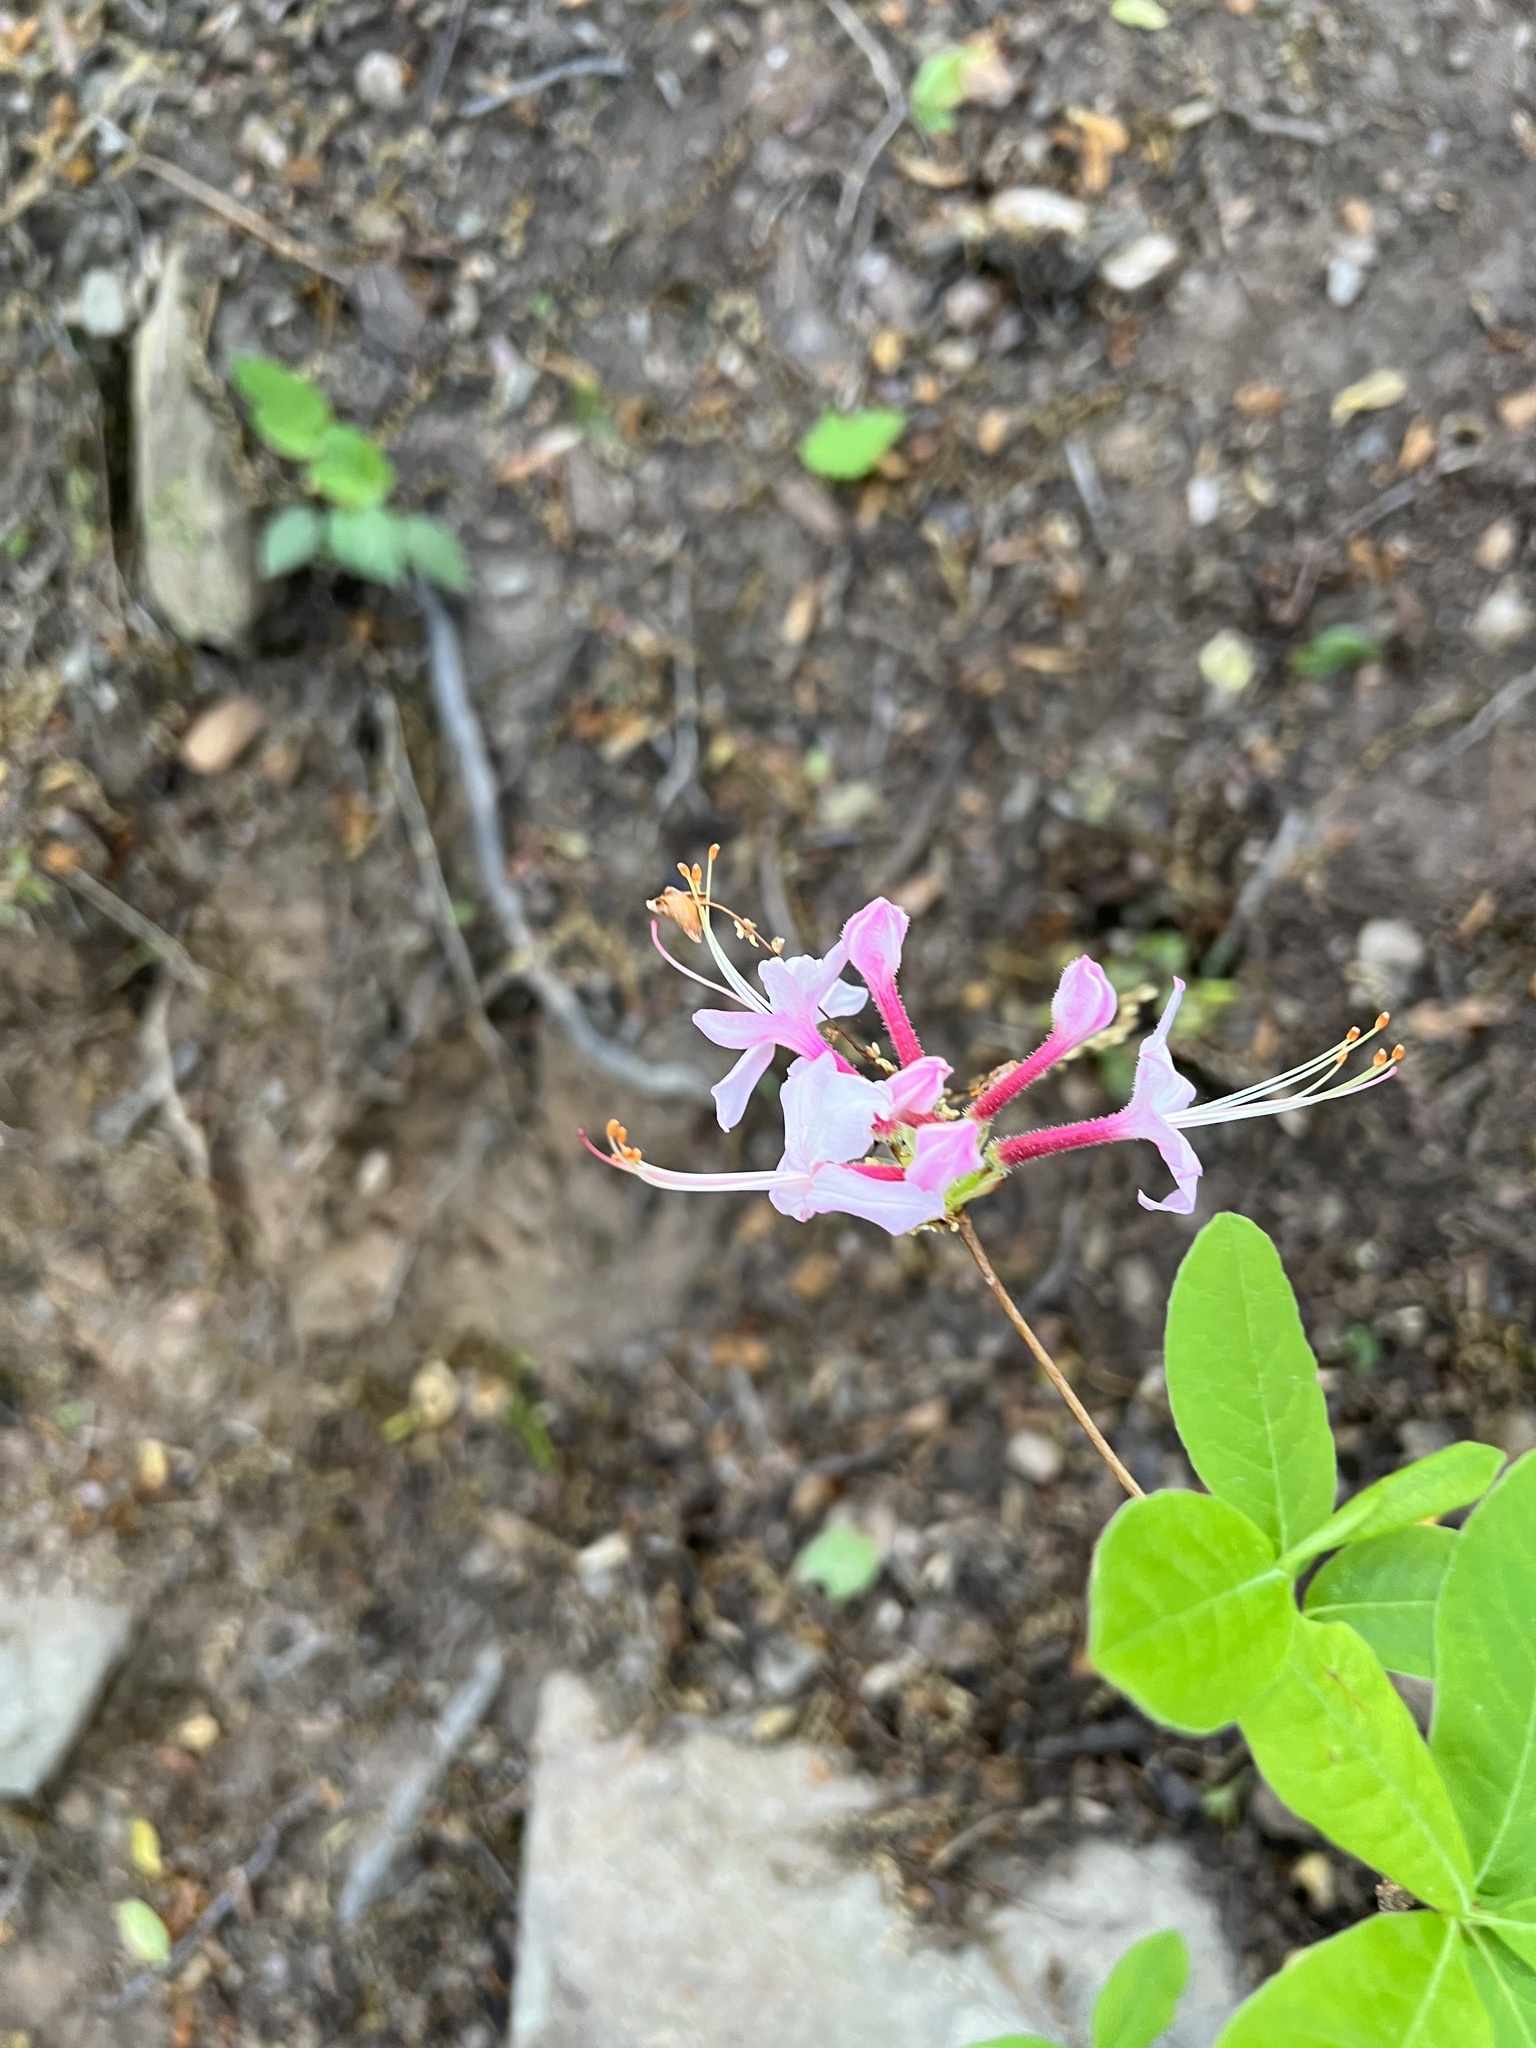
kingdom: Plantae
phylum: Tracheophyta
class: Magnoliopsida
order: Ericales
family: Ericaceae
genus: Rhododendron
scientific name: Rhododendron periclymenoides
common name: Election-pink
